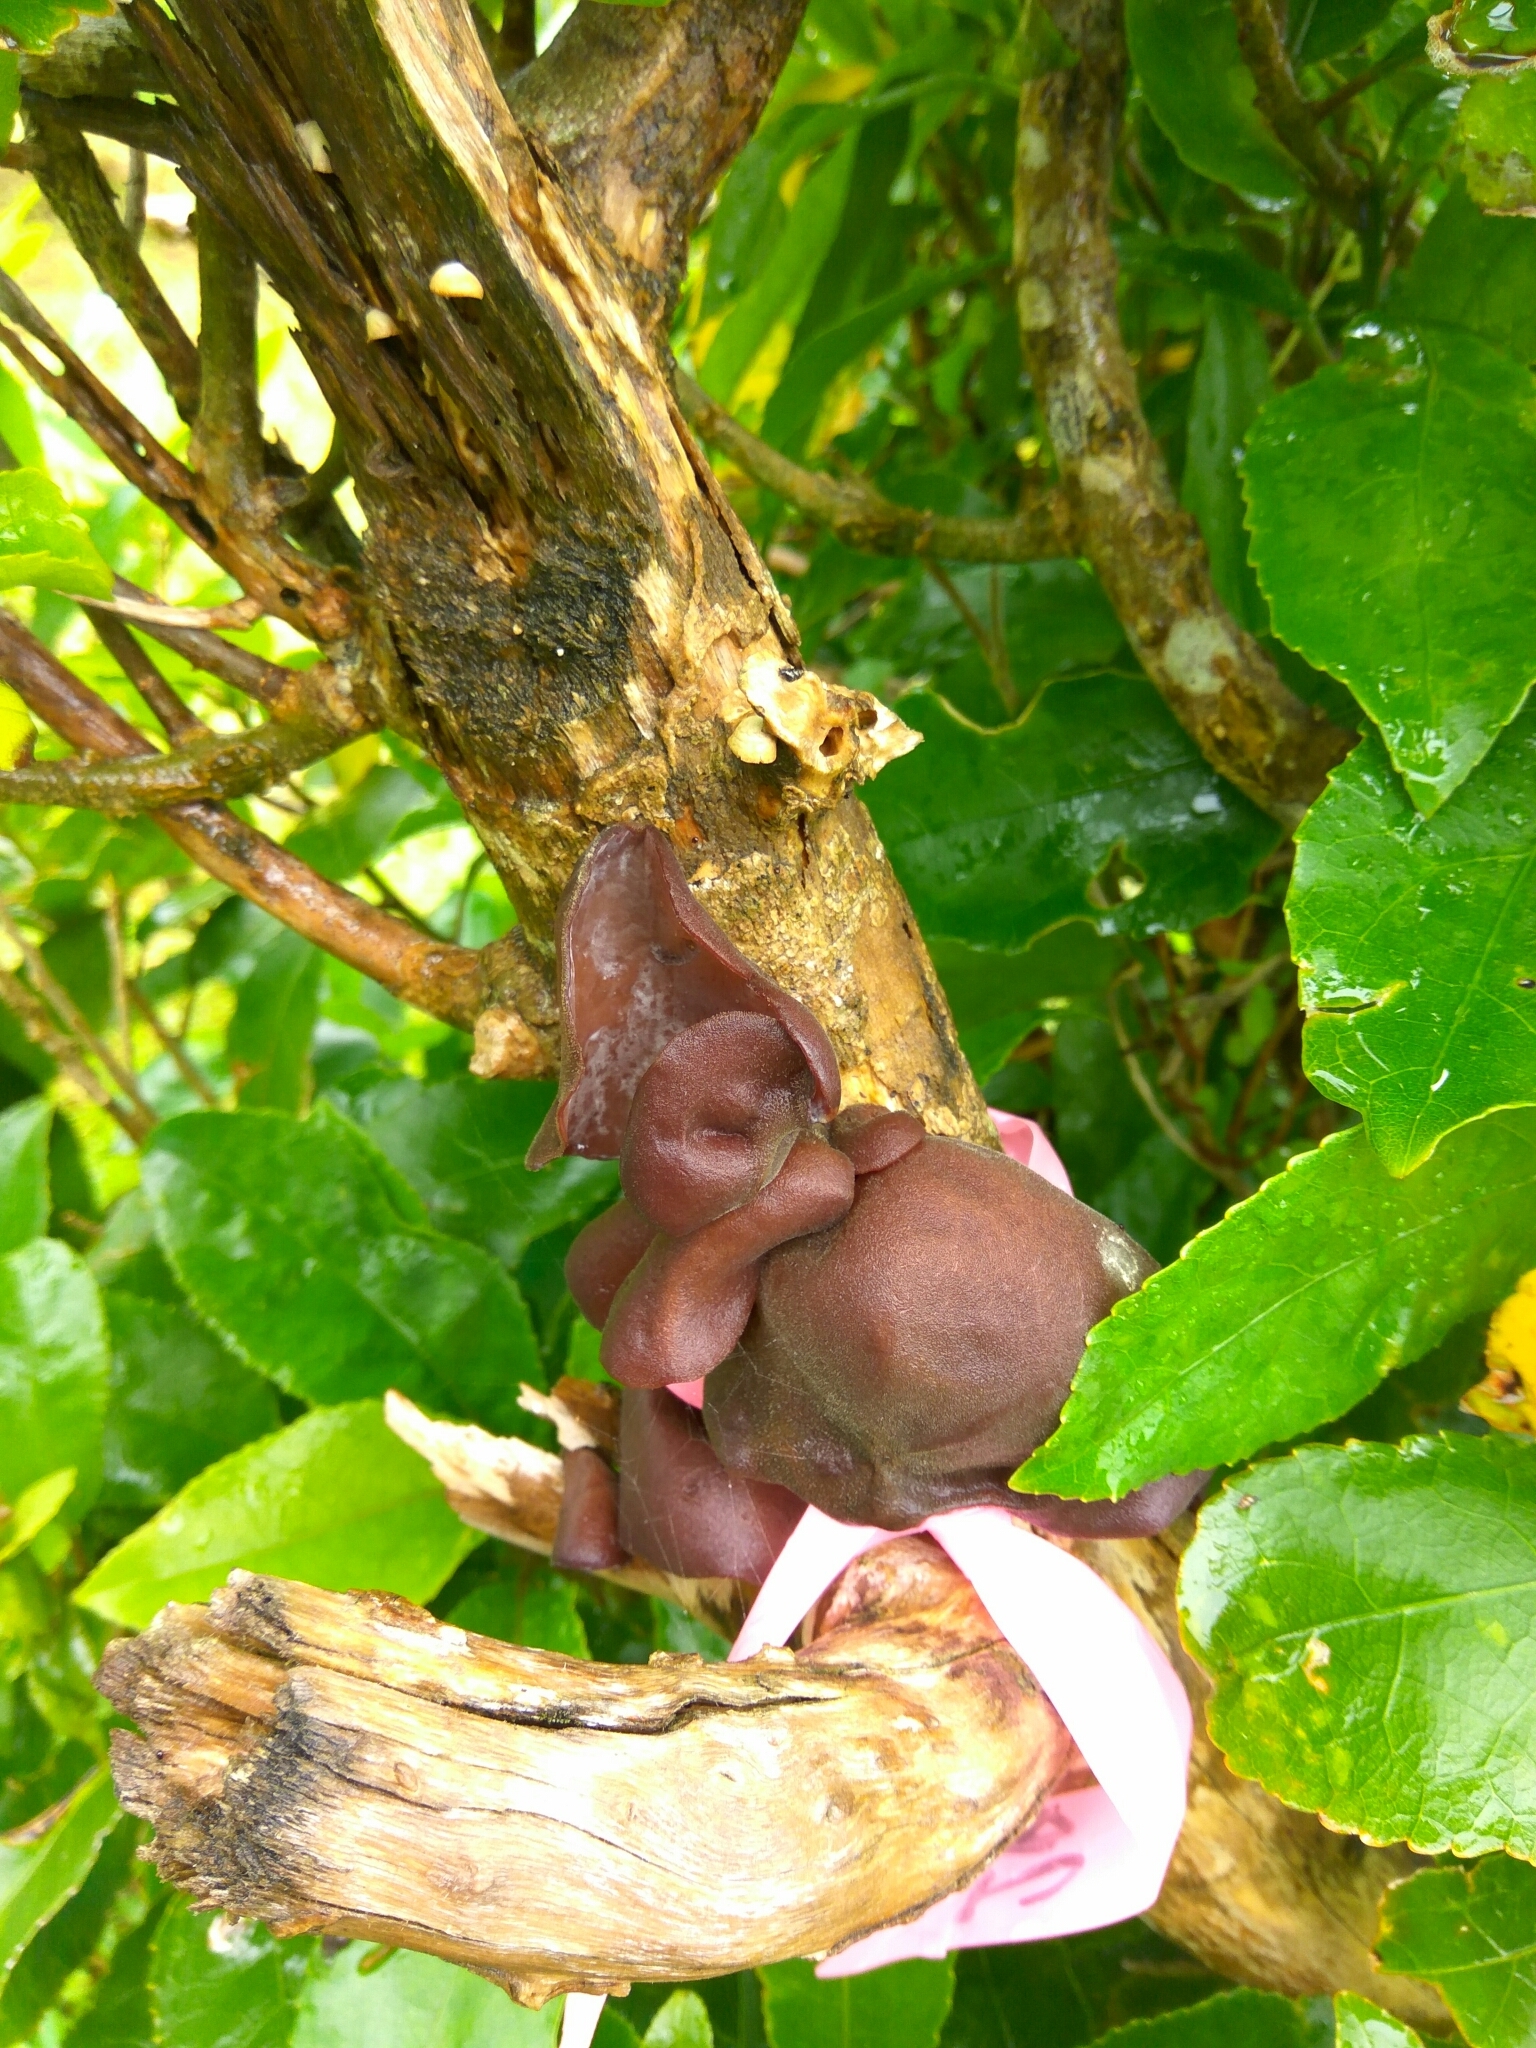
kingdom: Fungi
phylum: Basidiomycota
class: Agaricomycetes
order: Auriculariales
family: Auriculariaceae
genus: Auricularia
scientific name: Auricularia cornea
